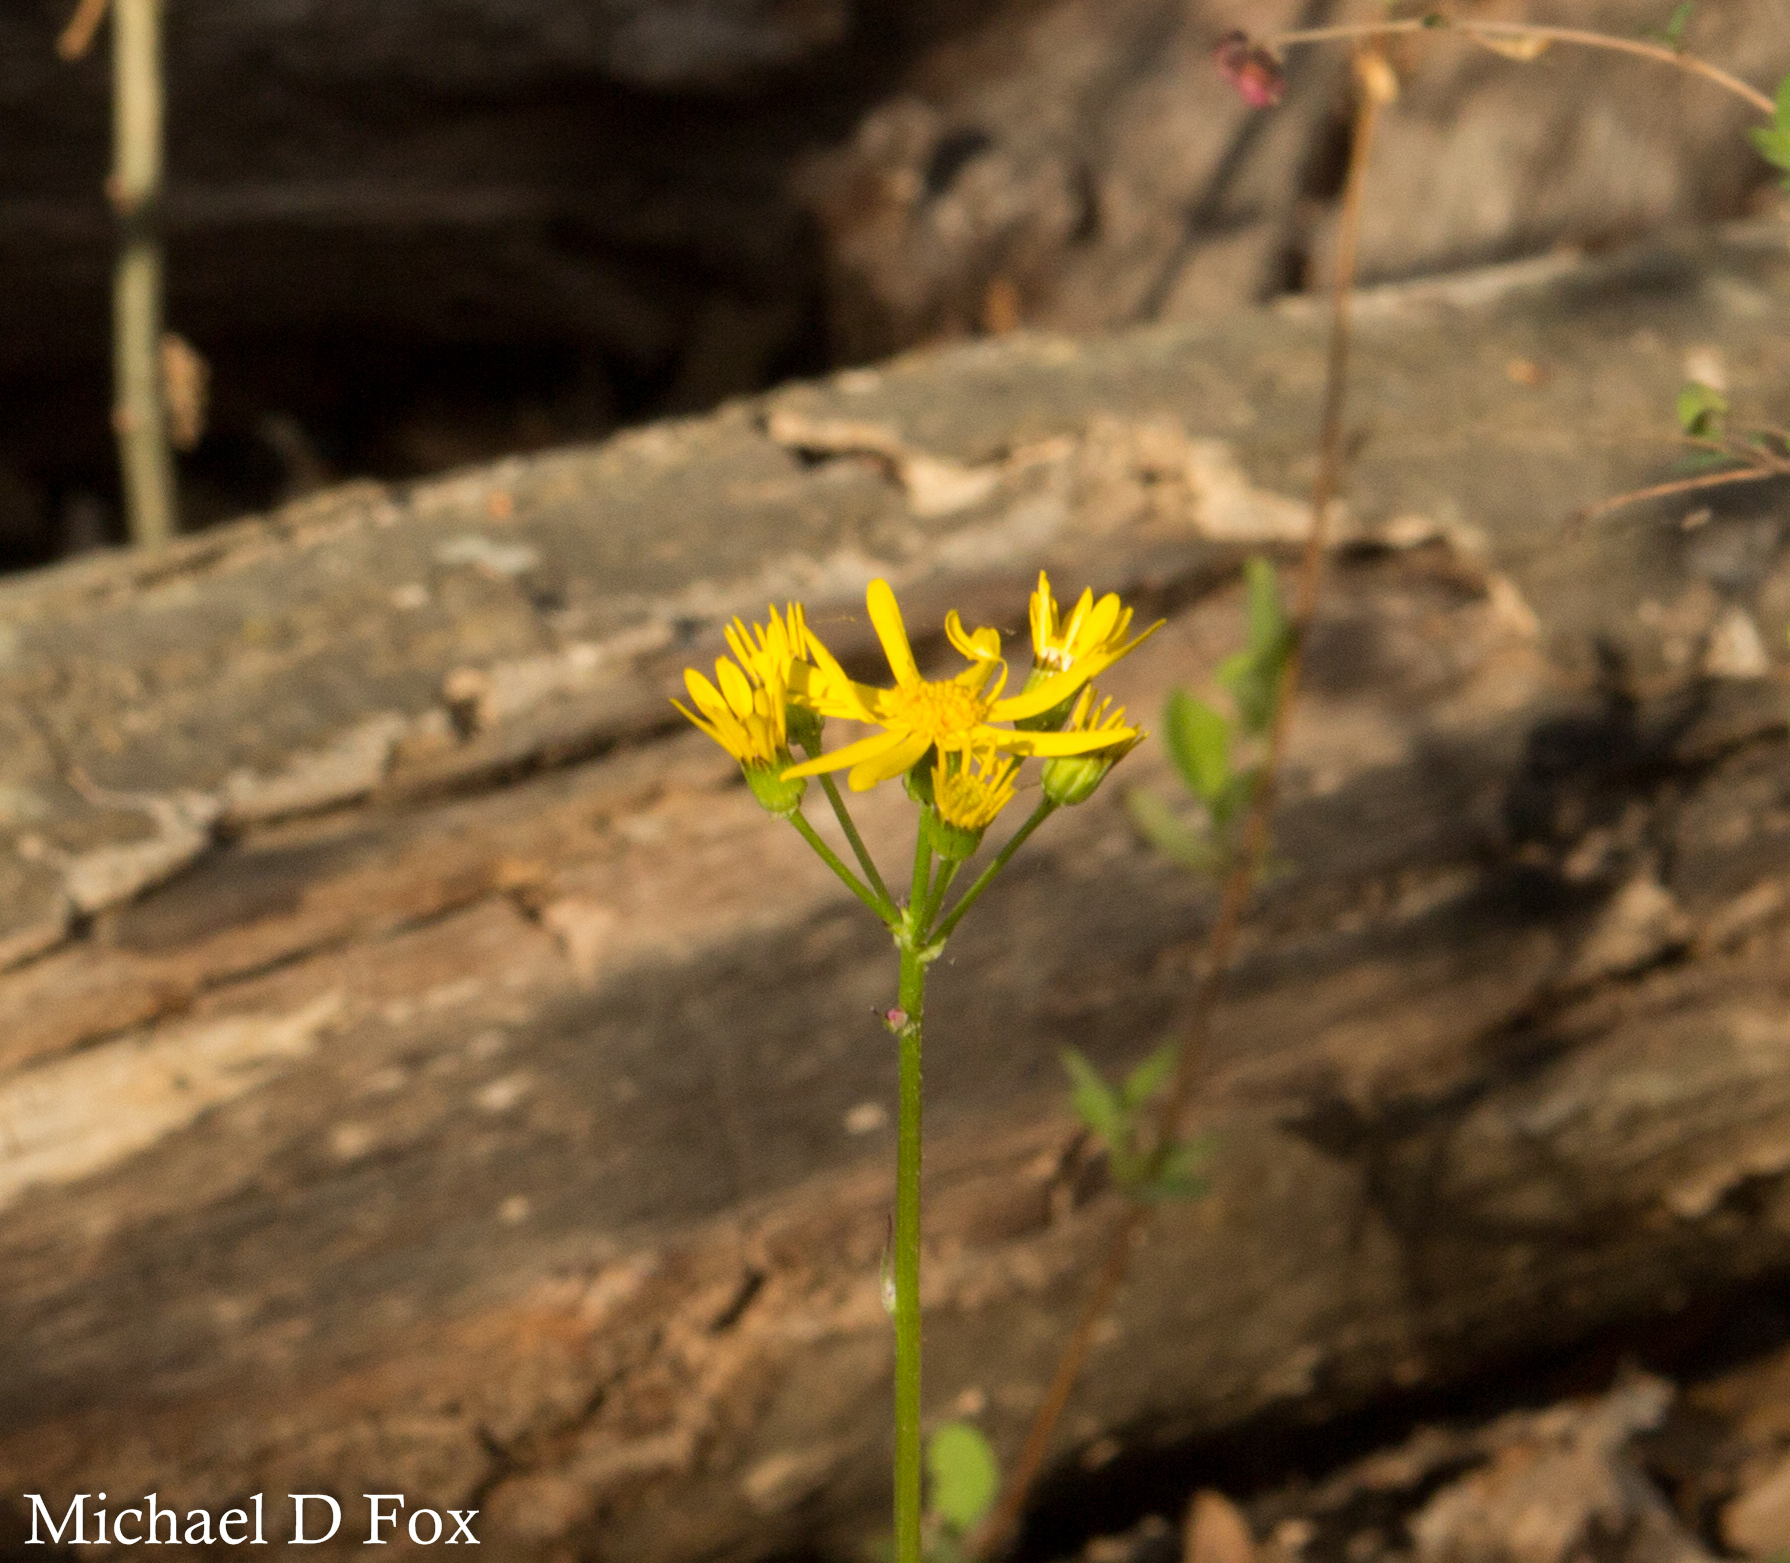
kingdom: Plantae
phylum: Tracheophyta
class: Magnoliopsida
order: Asterales
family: Asteraceae
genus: Packera
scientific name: Packera obovata
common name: Round-leaf ragwort
